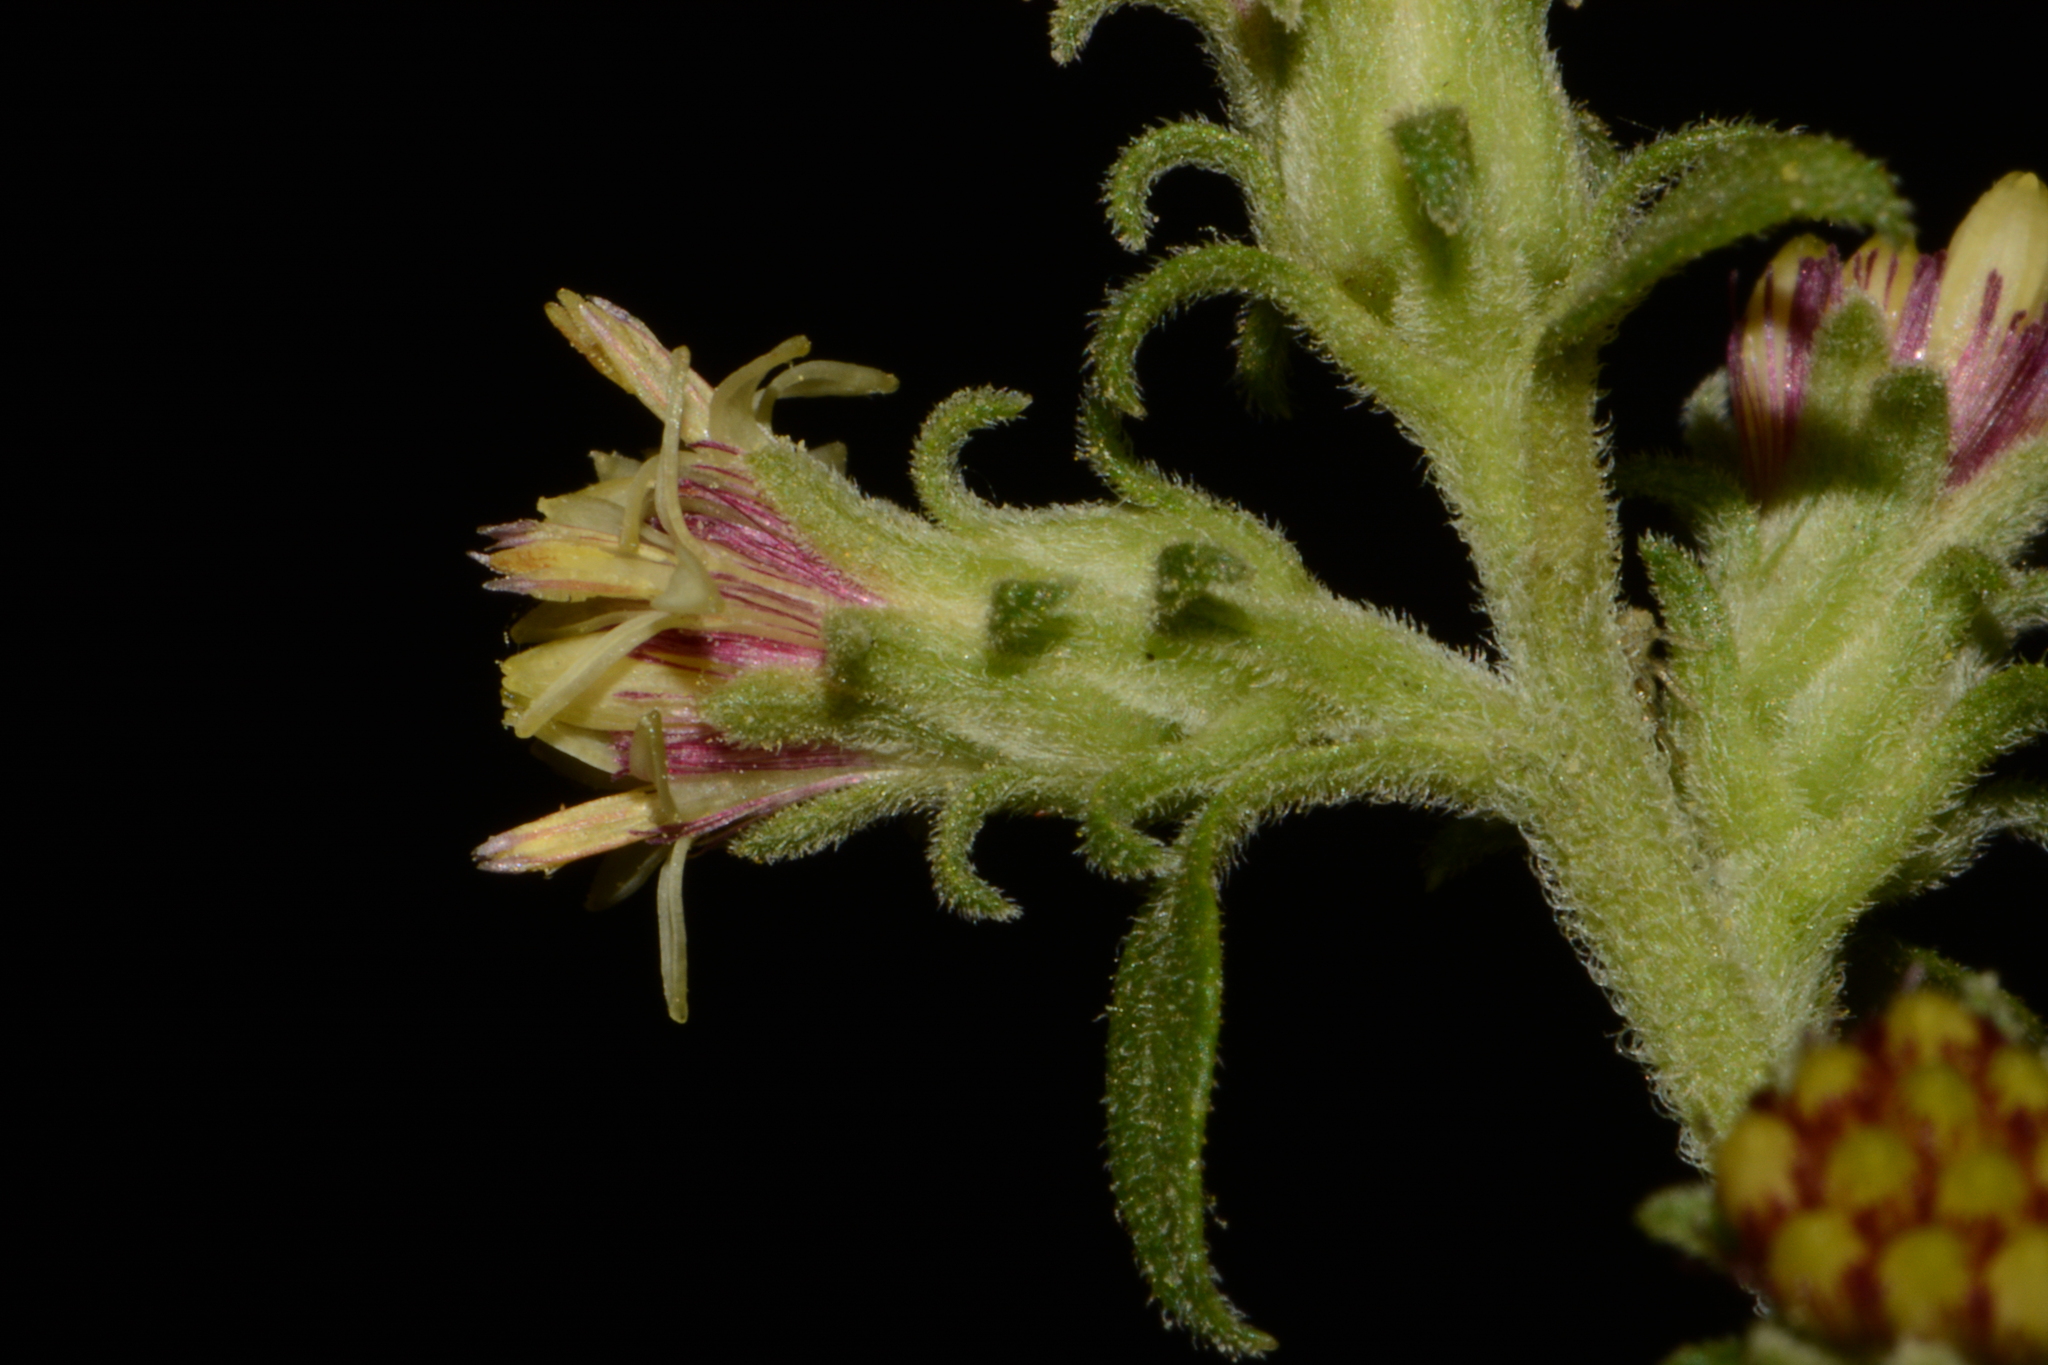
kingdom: Plantae
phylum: Tracheophyta
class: Magnoliopsida
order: Asterales
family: Asteraceae
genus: Solidago
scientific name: Solidago discoidea
